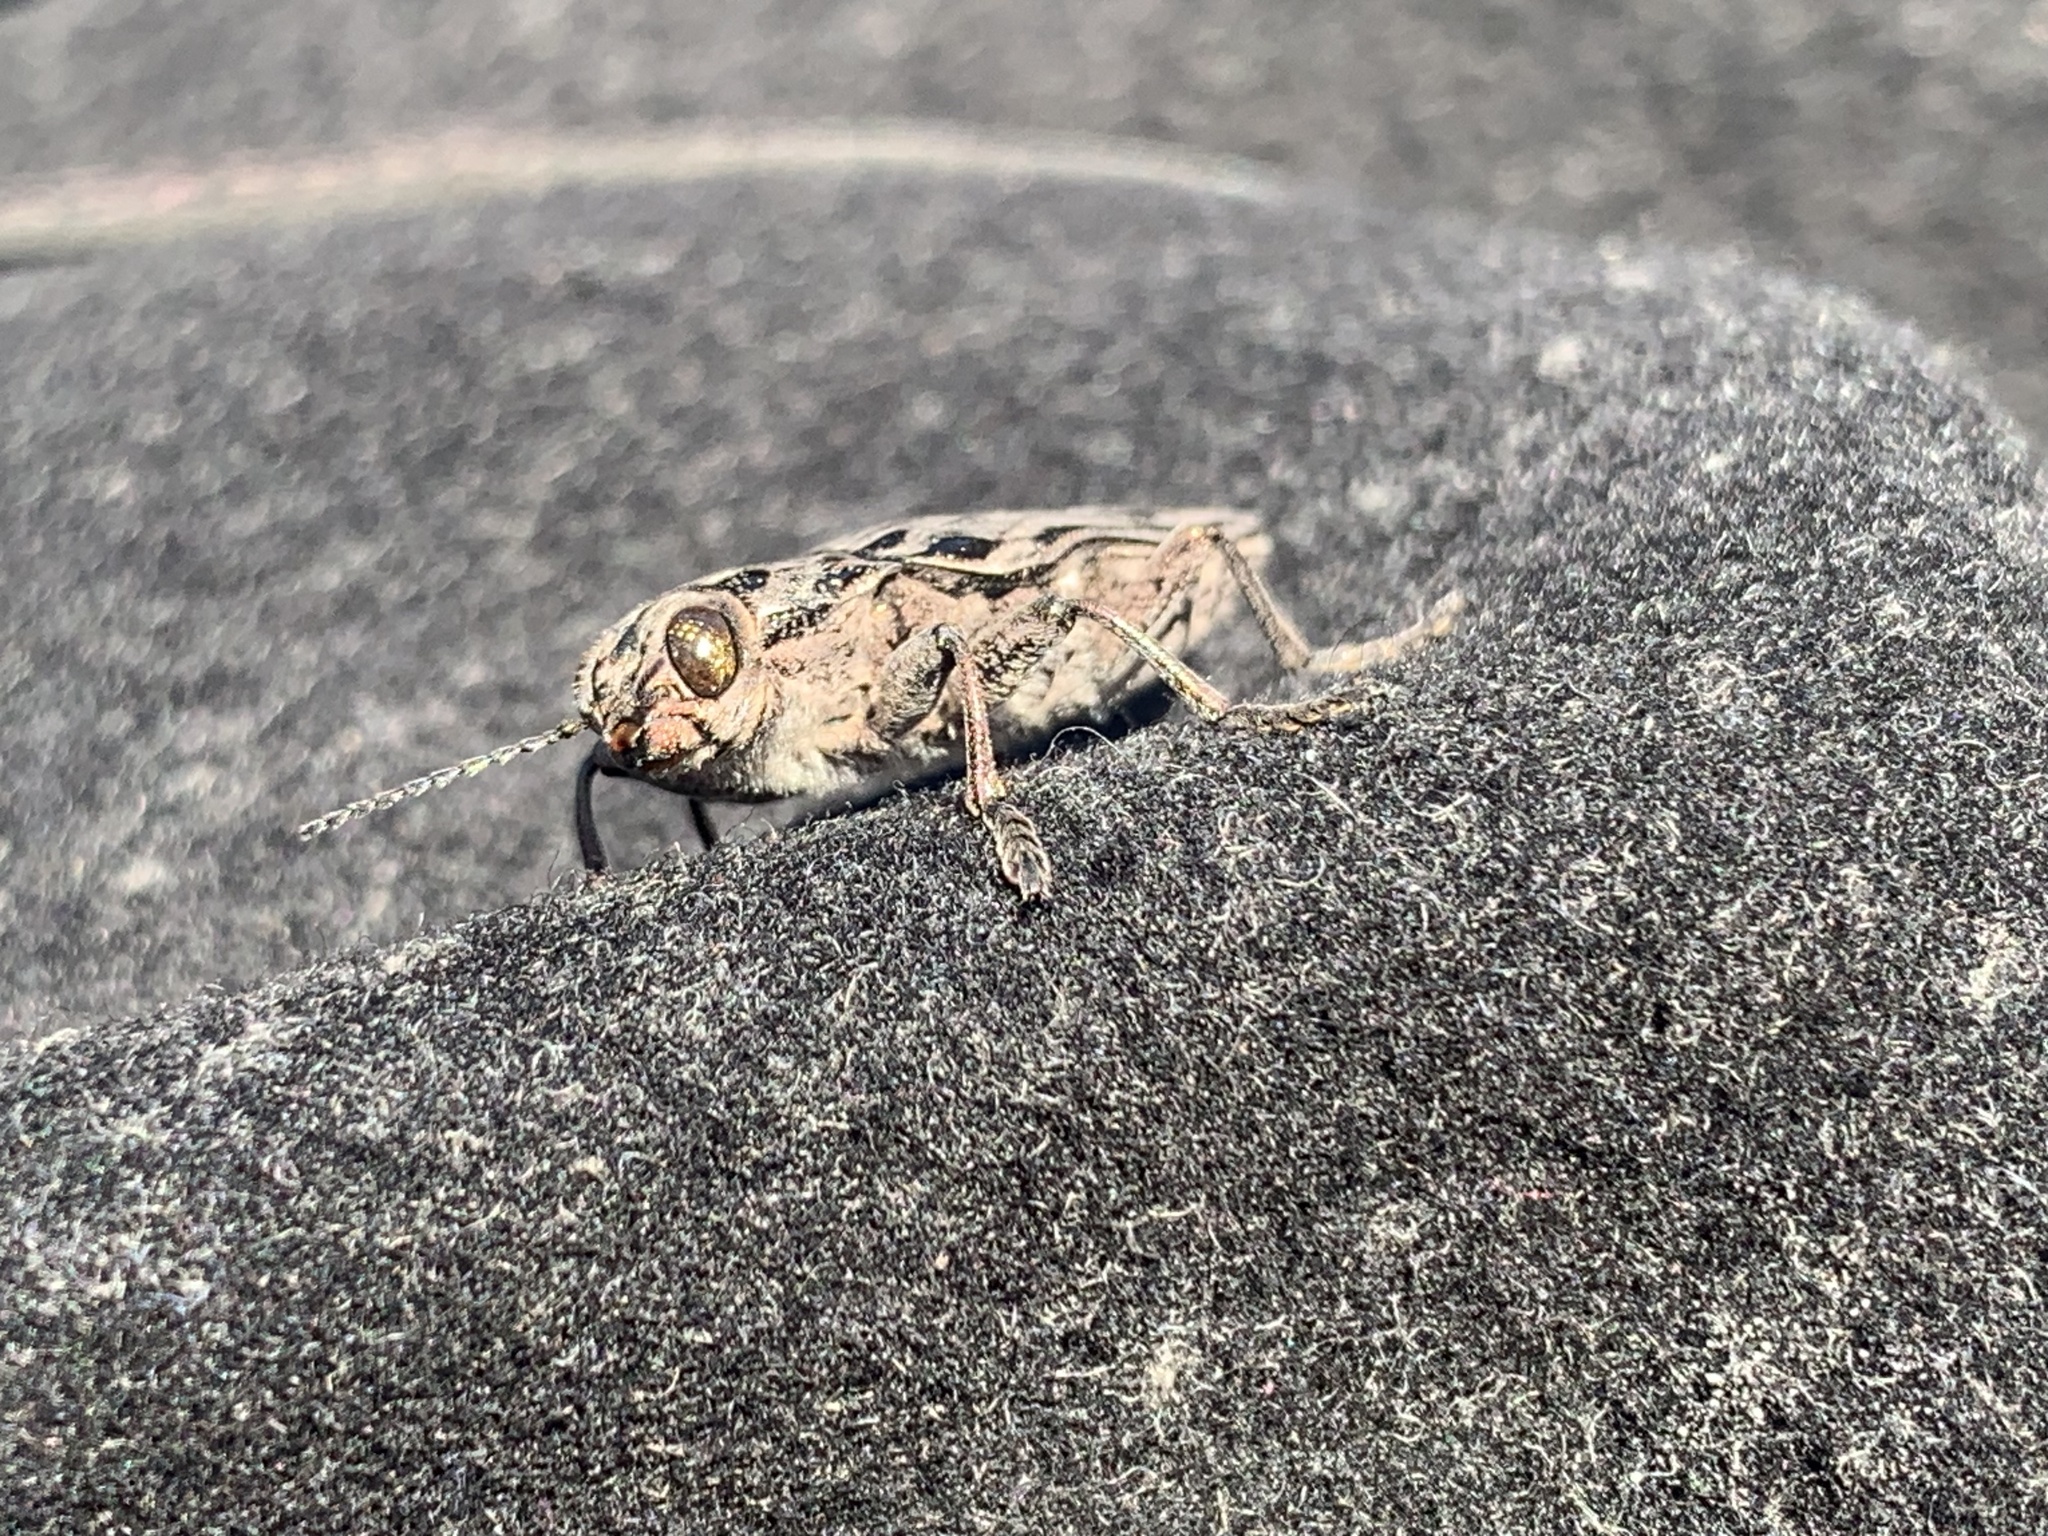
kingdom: Animalia
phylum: Arthropoda
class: Insecta
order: Coleoptera
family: Buprestidae
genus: Chalcophora
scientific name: Chalcophora angulicollis
